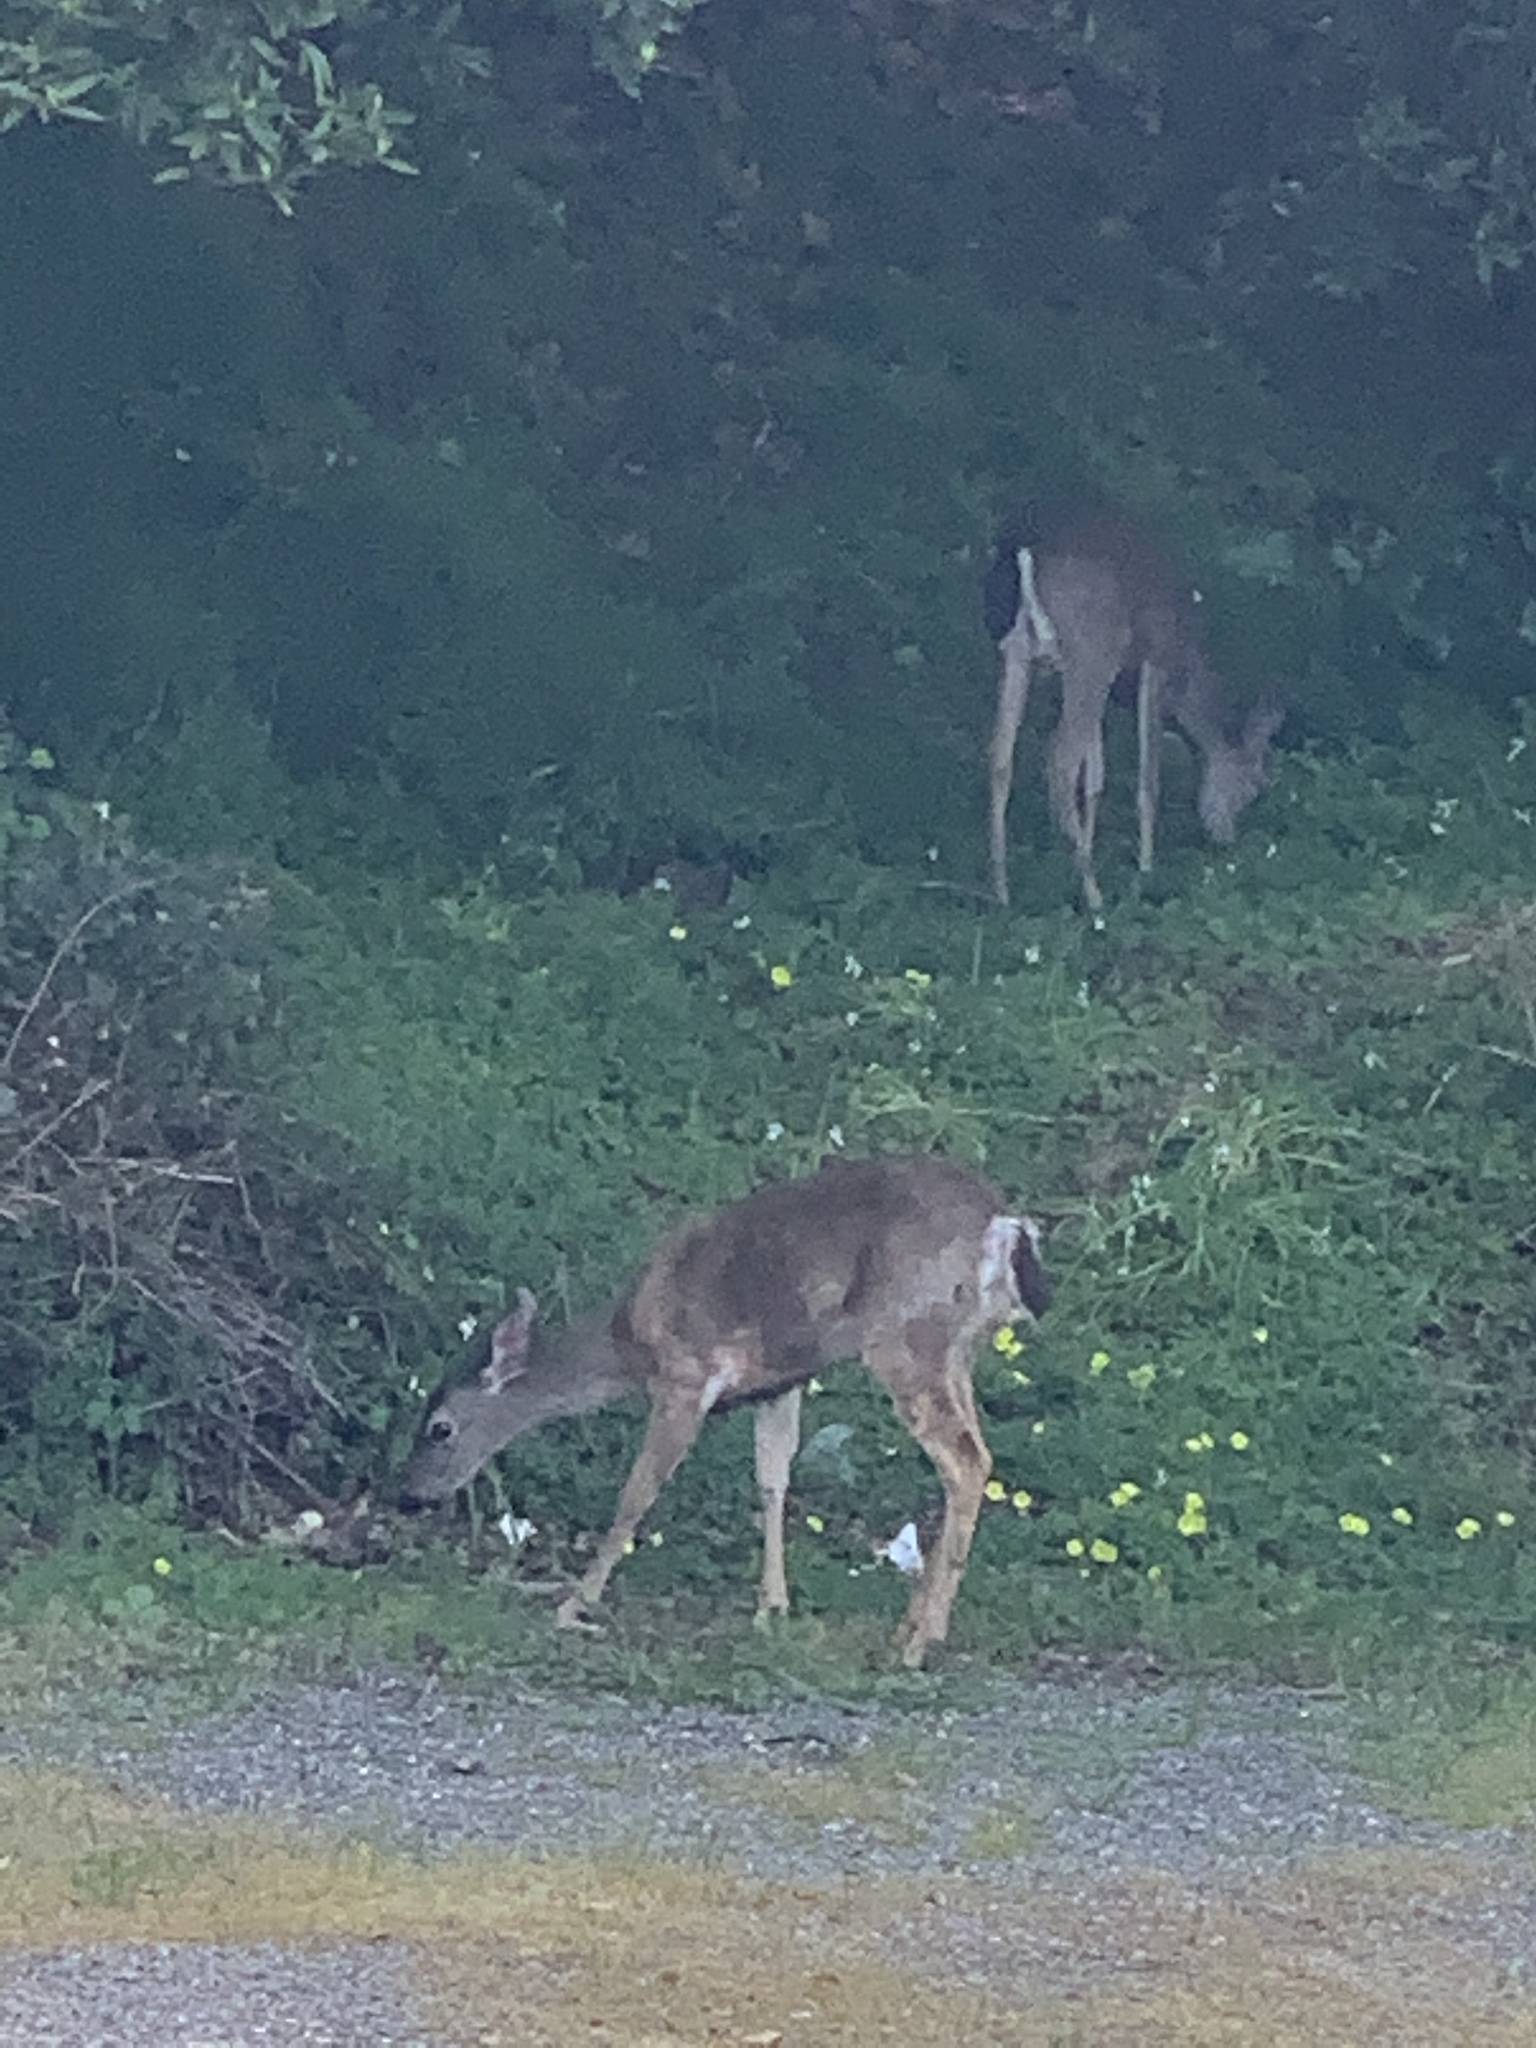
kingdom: Animalia
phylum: Chordata
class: Mammalia
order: Artiodactyla
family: Cervidae
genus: Odocoileus
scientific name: Odocoileus hemionus
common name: Mule deer
